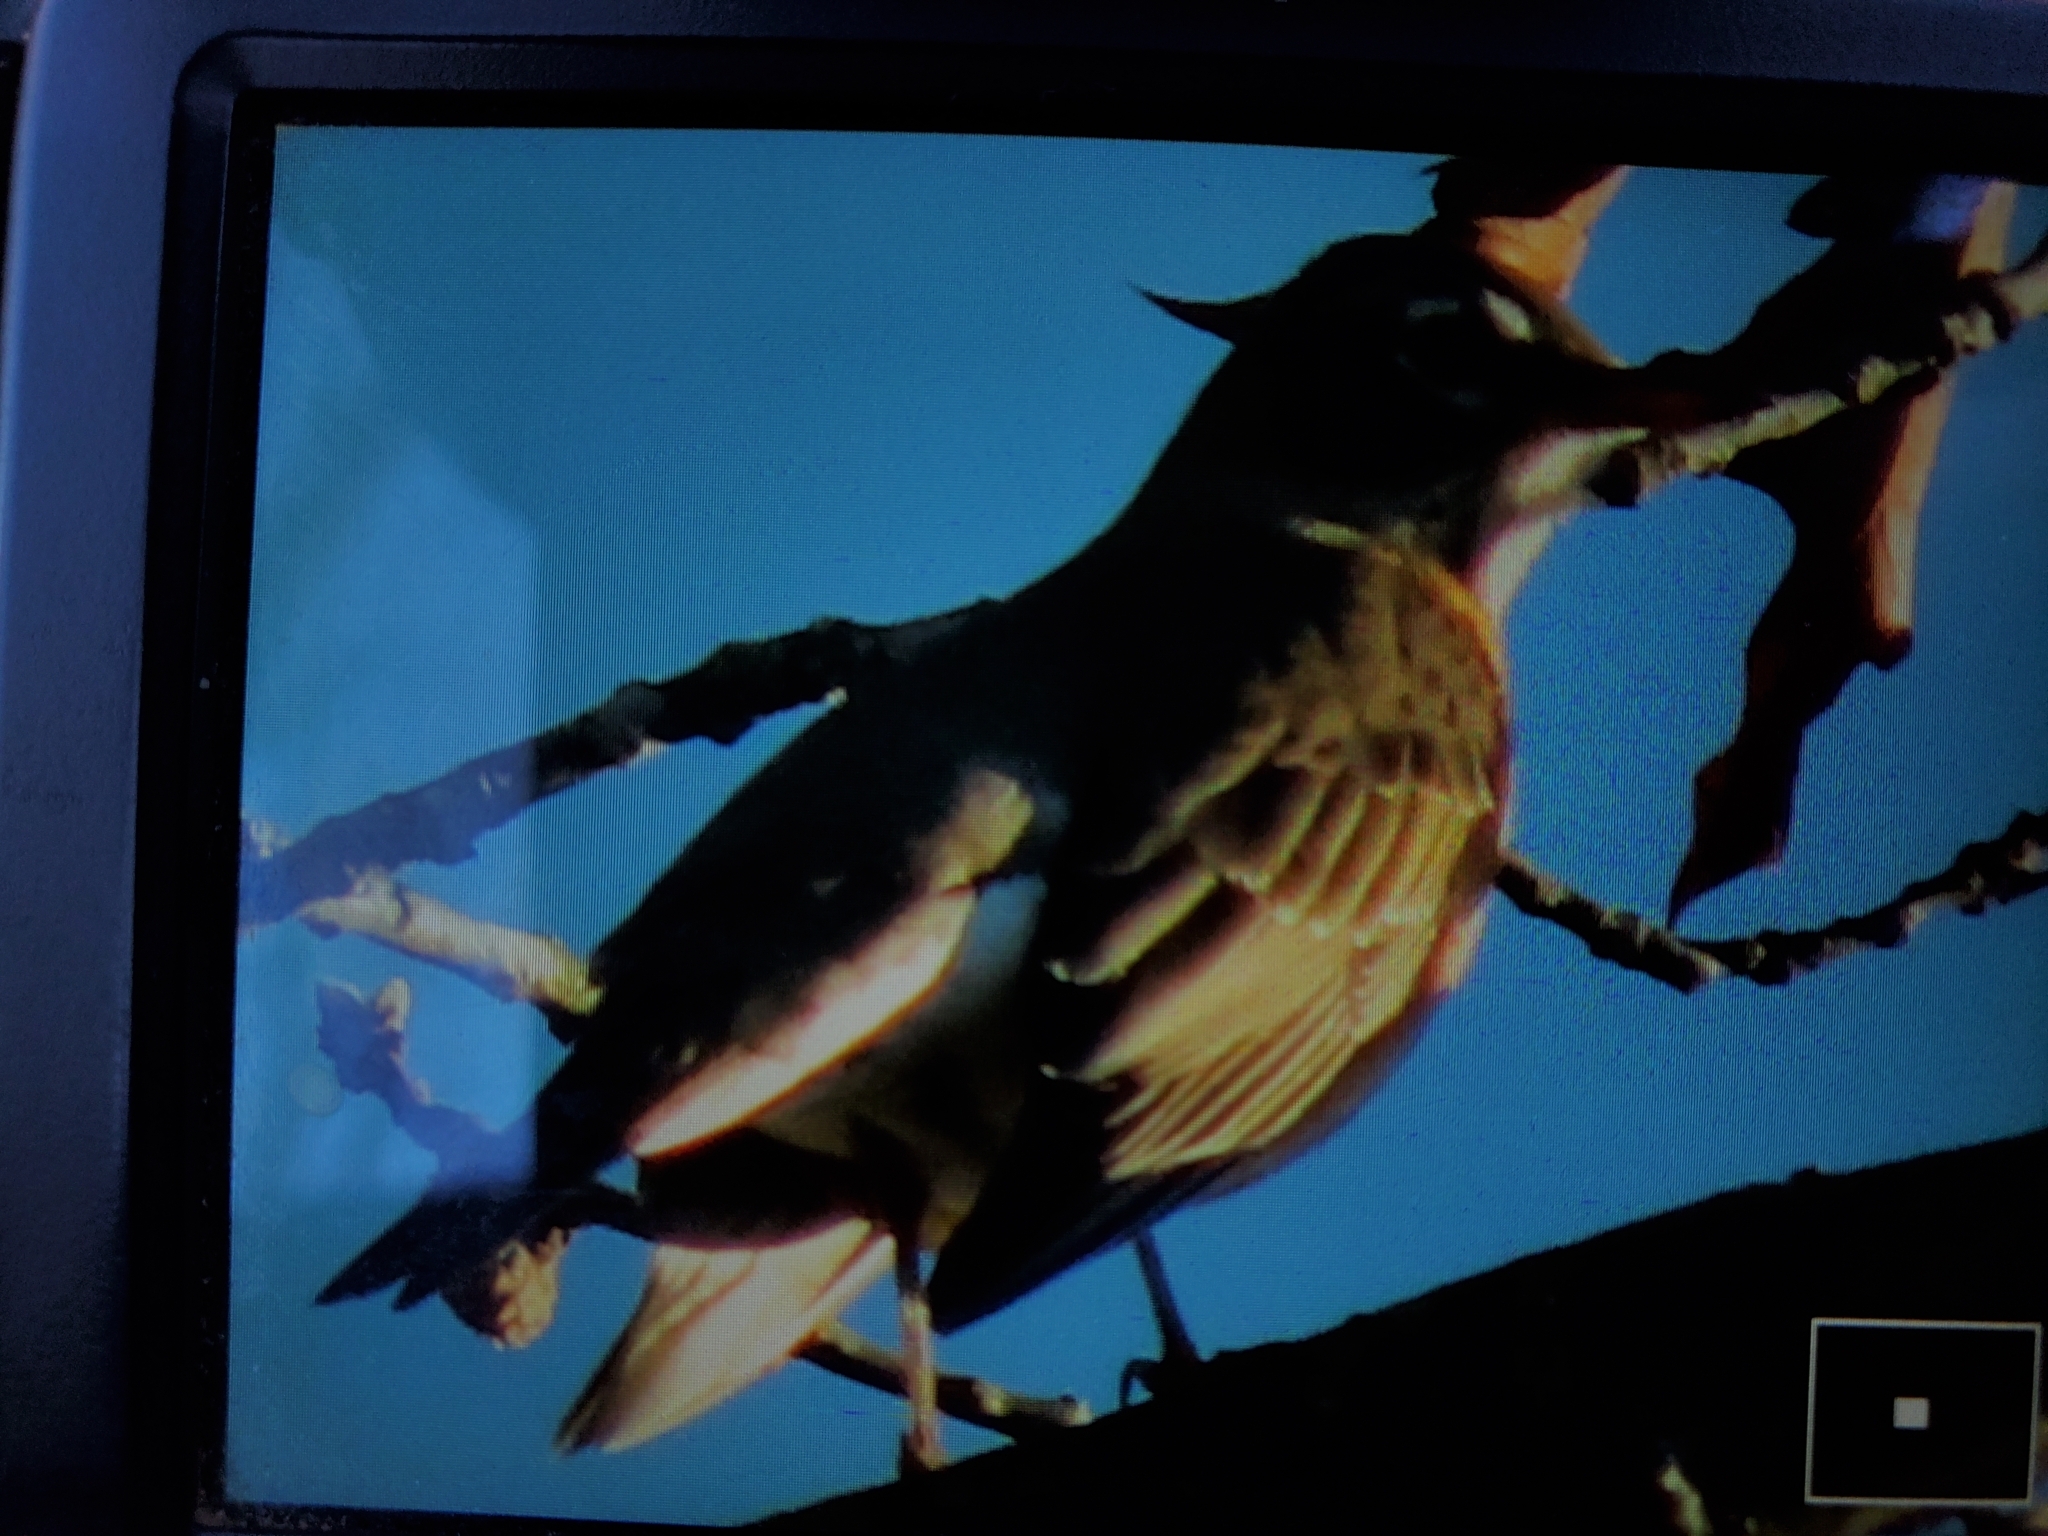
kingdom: Animalia
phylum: Chordata
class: Aves
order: Passeriformes
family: Turdidae
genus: Turdus
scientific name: Turdus migratorius
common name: American robin
